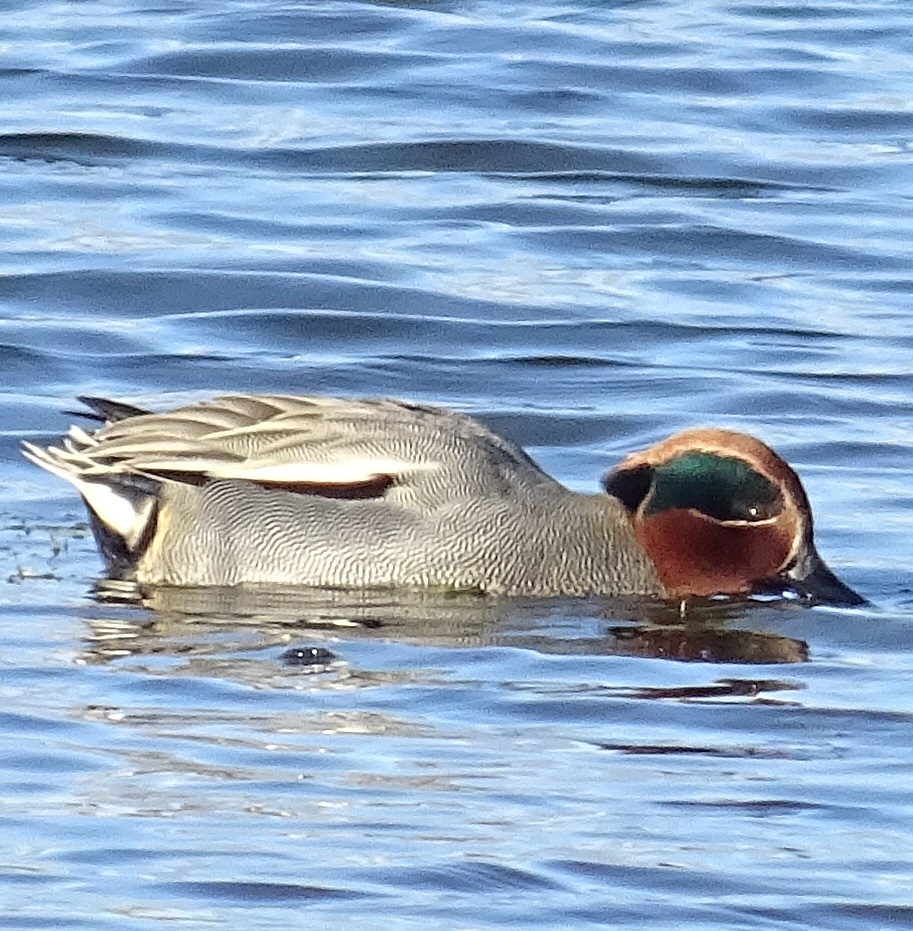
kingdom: Animalia
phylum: Chordata
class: Aves
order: Anseriformes
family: Anatidae
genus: Anas
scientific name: Anas crecca
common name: Eurasian teal
